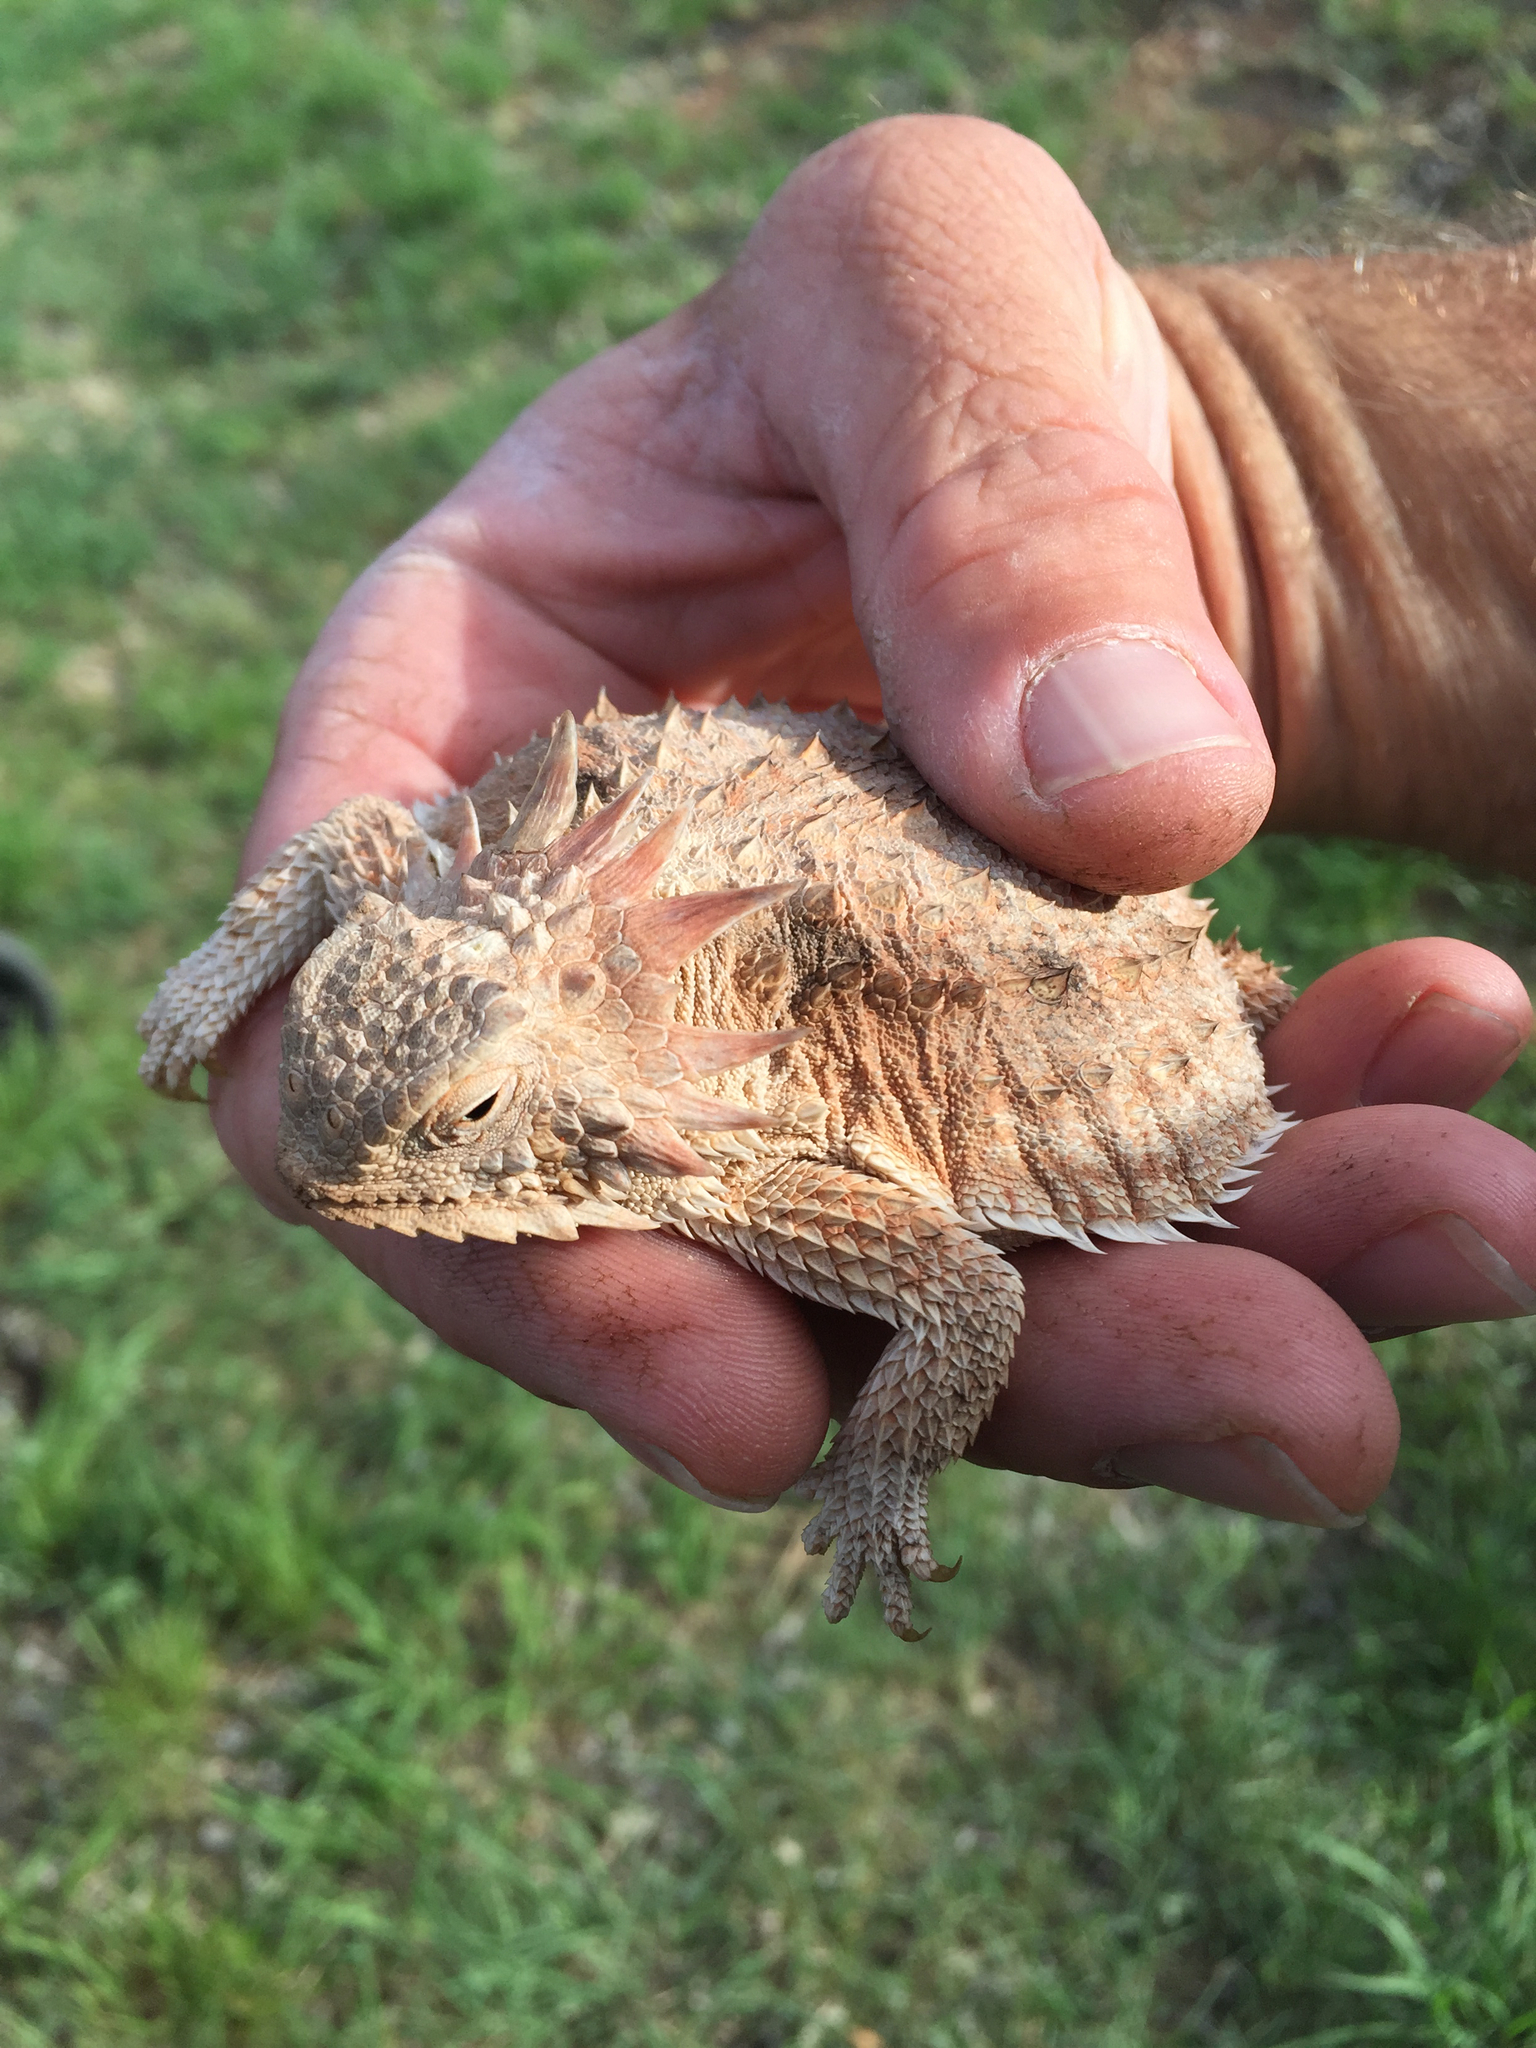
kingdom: Animalia
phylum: Chordata
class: Squamata
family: Phrynosomatidae
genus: Phrynosoma
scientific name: Phrynosoma solare
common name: Regal horned lizard
